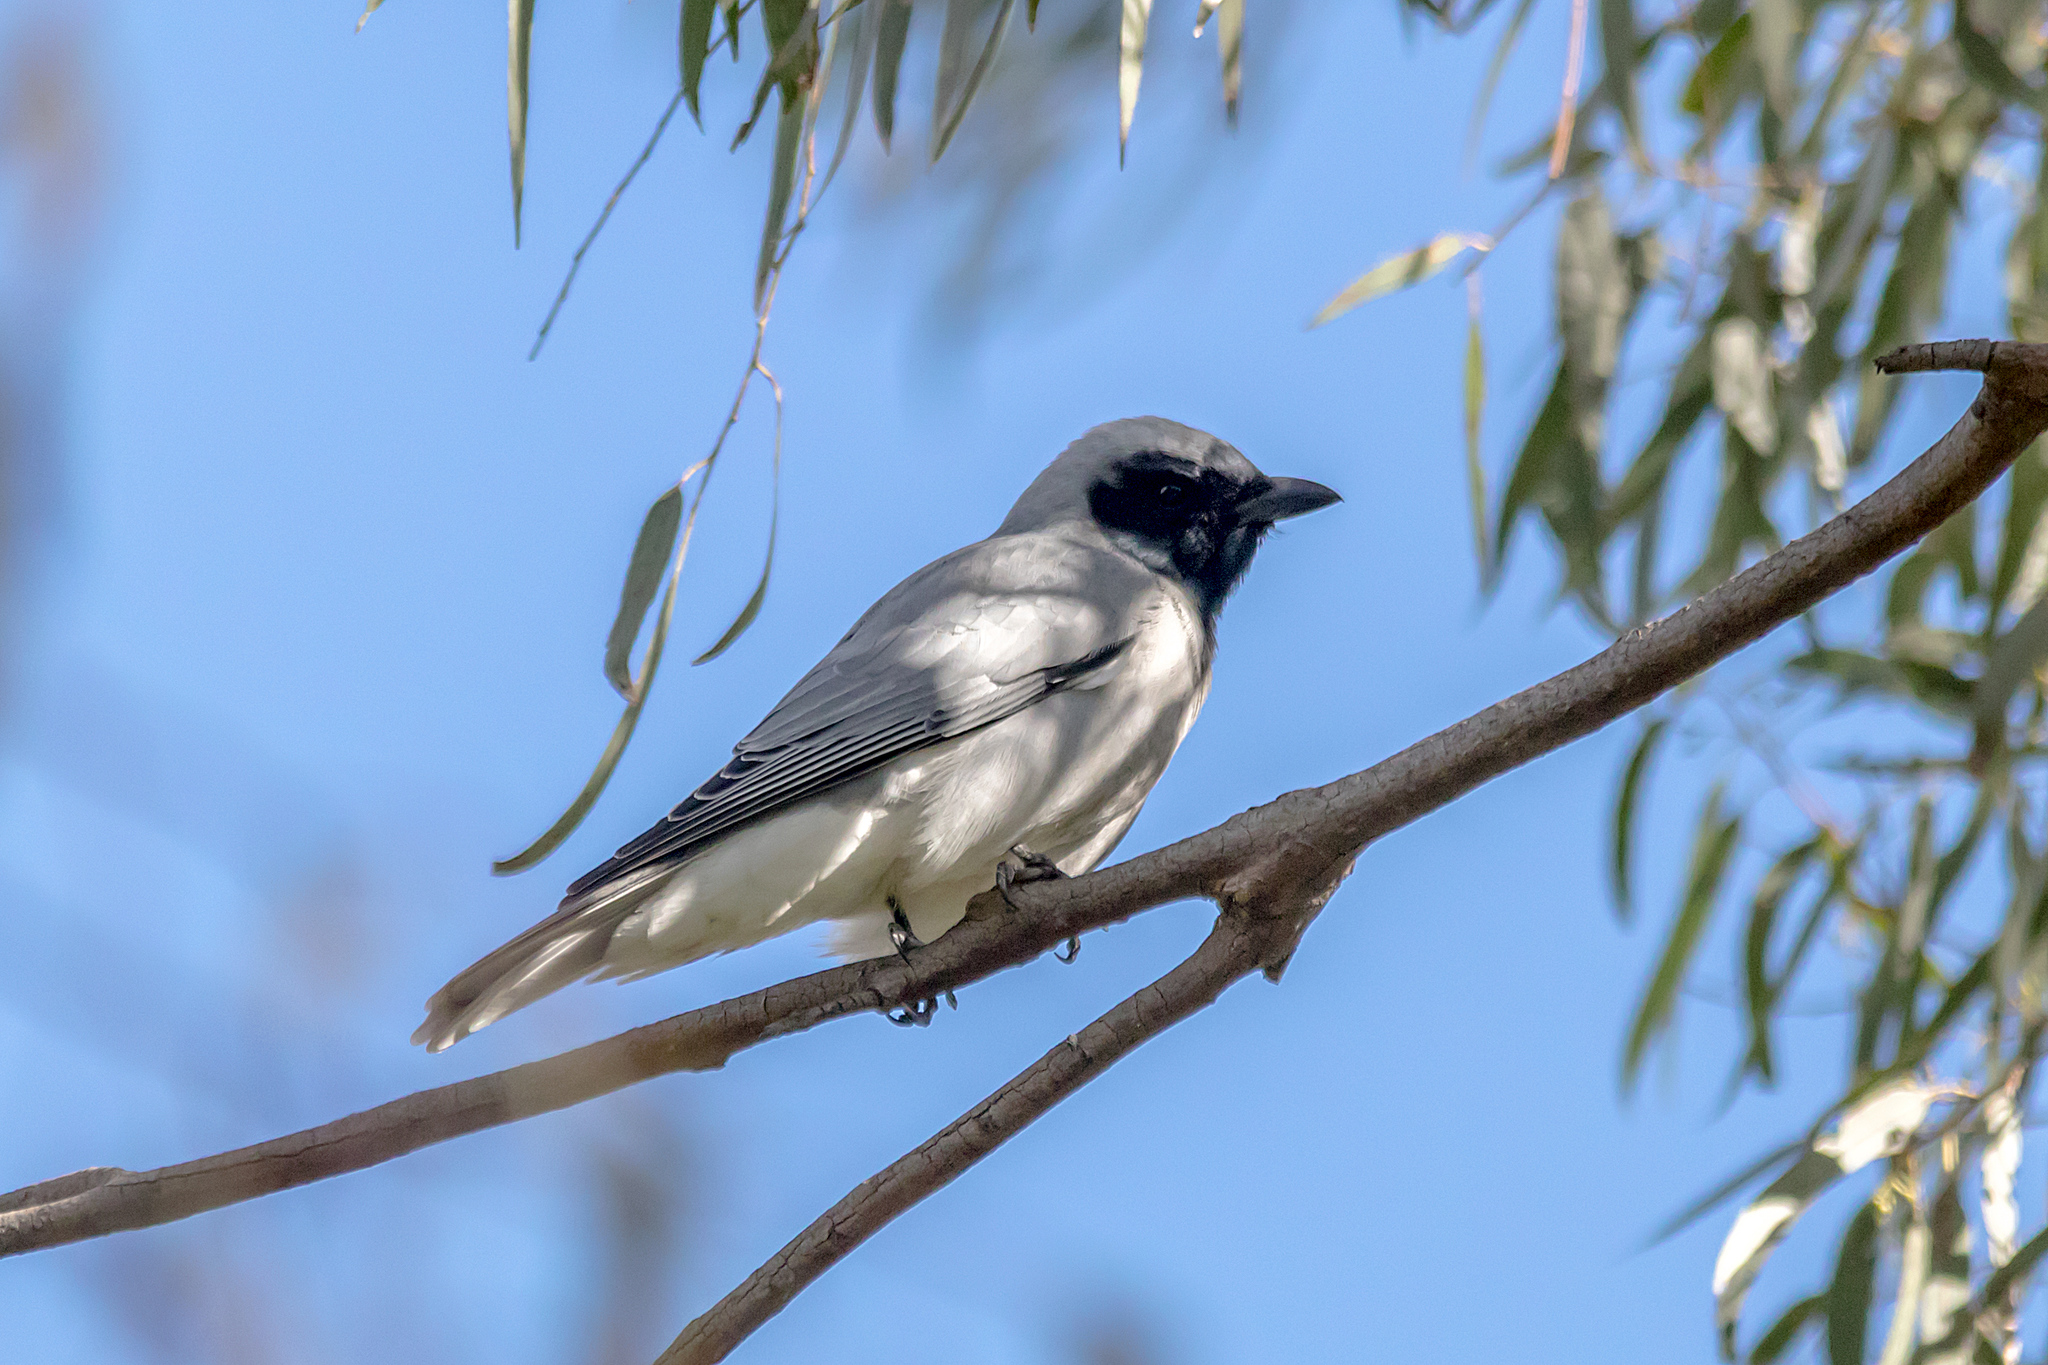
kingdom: Animalia
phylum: Chordata
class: Aves
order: Passeriformes
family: Campephagidae
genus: Coracina
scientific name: Coracina novaehollandiae
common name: Black-faced cuckooshrike
